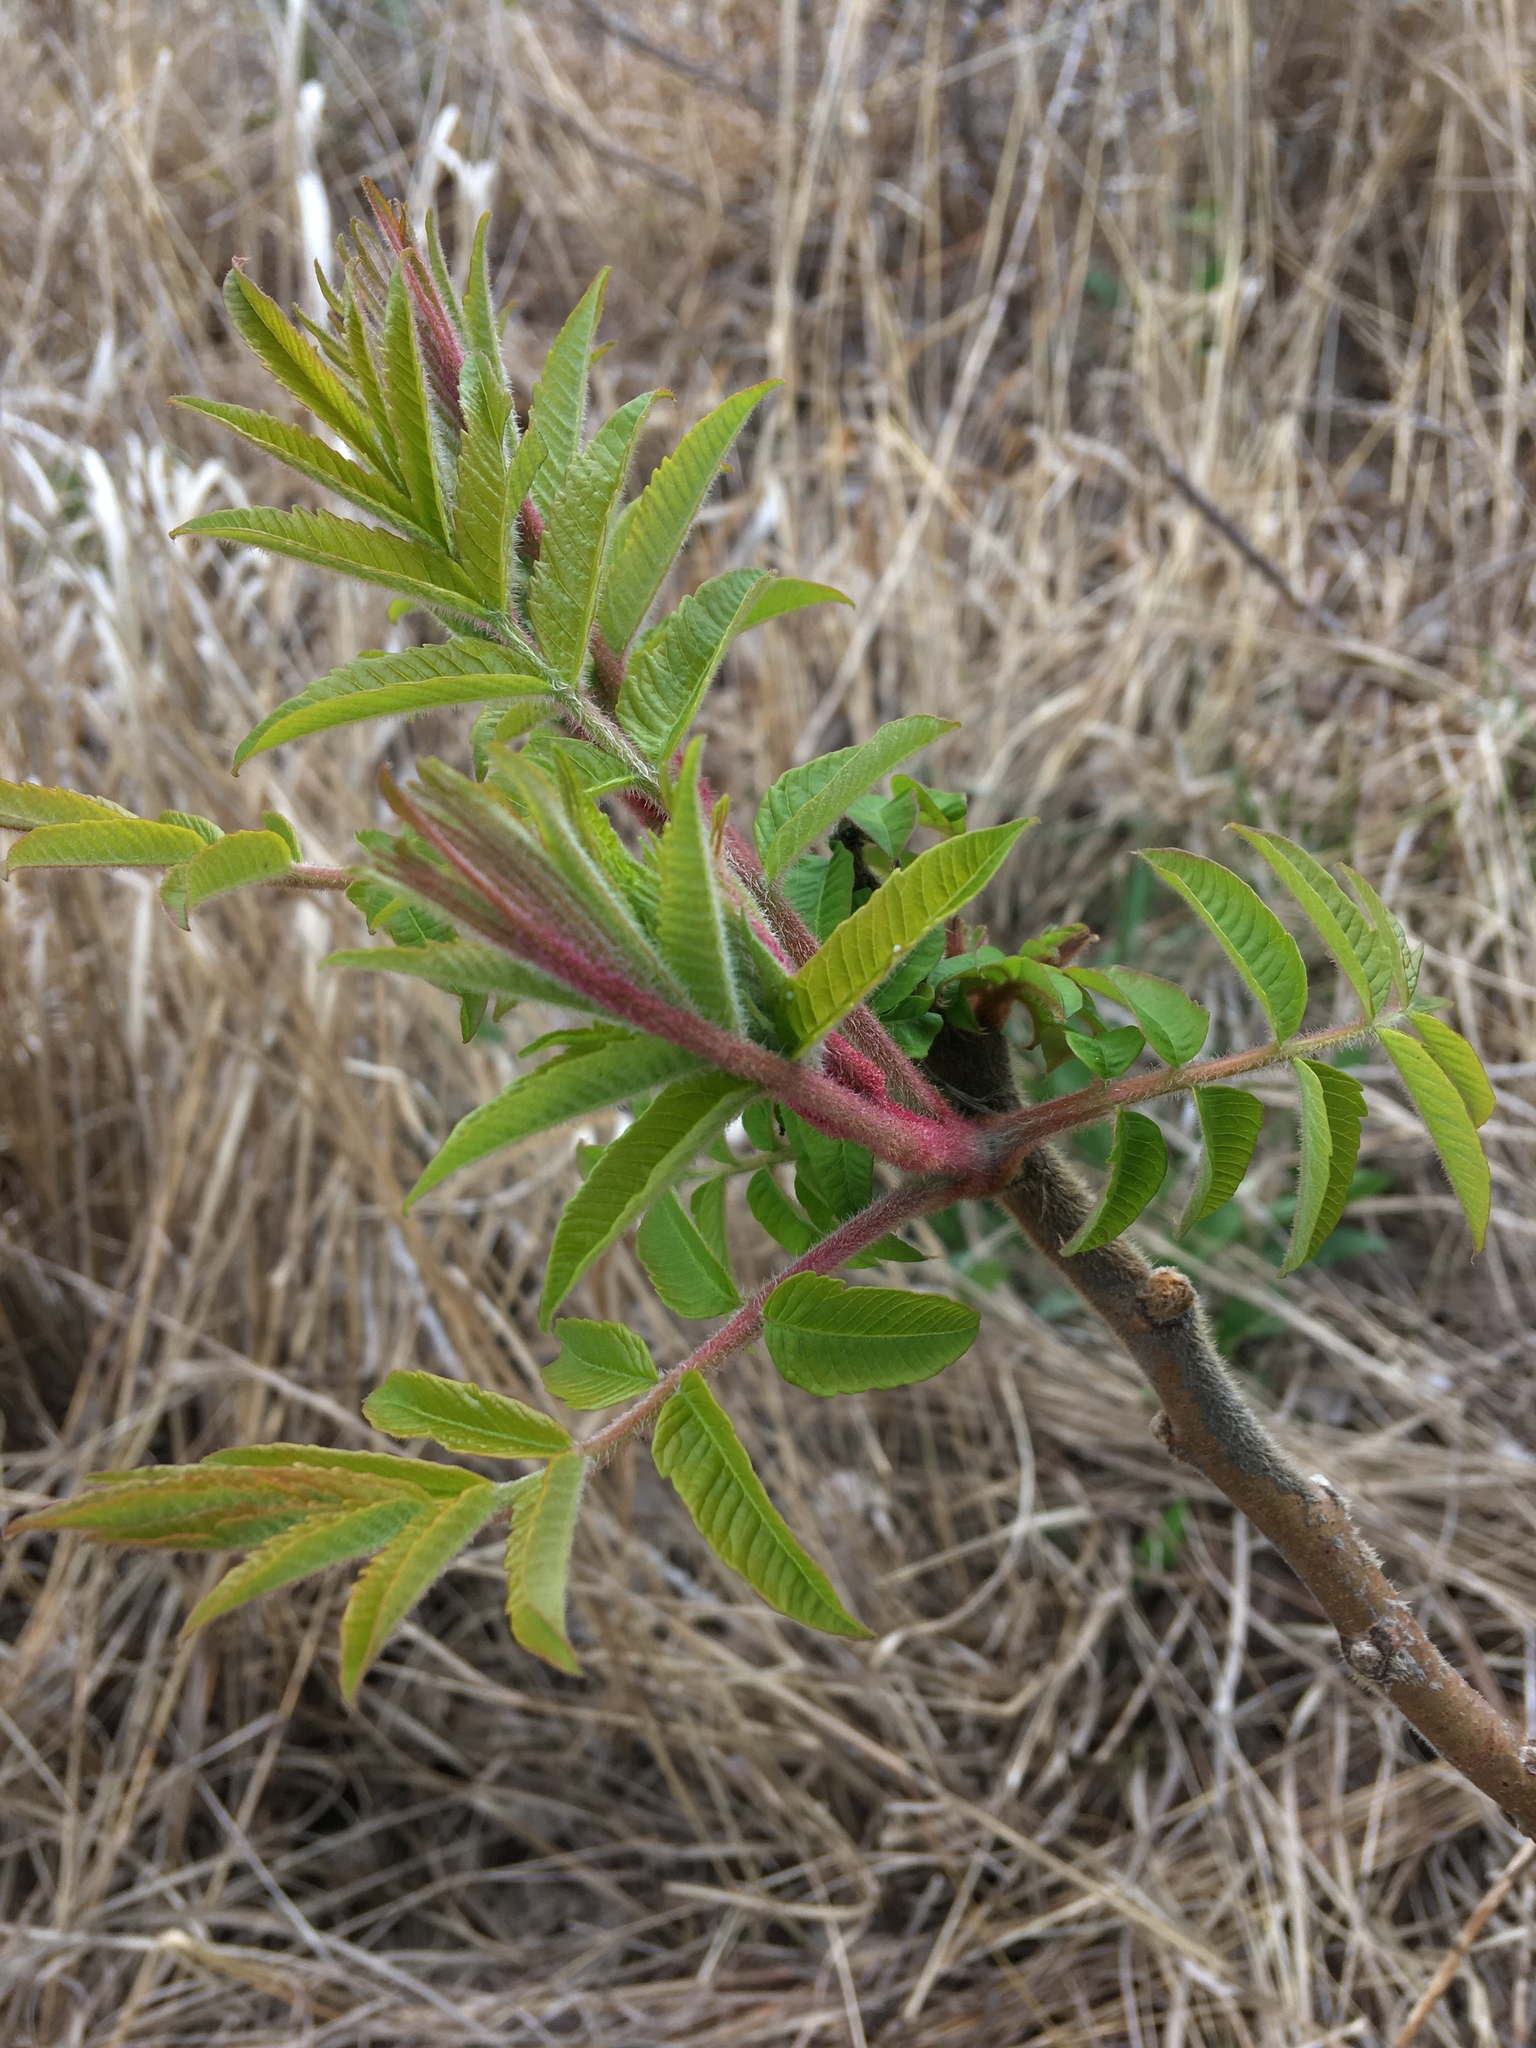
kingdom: Plantae
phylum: Tracheophyta
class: Magnoliopsida
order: Sapindales
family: Anacardiaceae
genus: Rhus
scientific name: Rhus typhina
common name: Staghorn sumac
